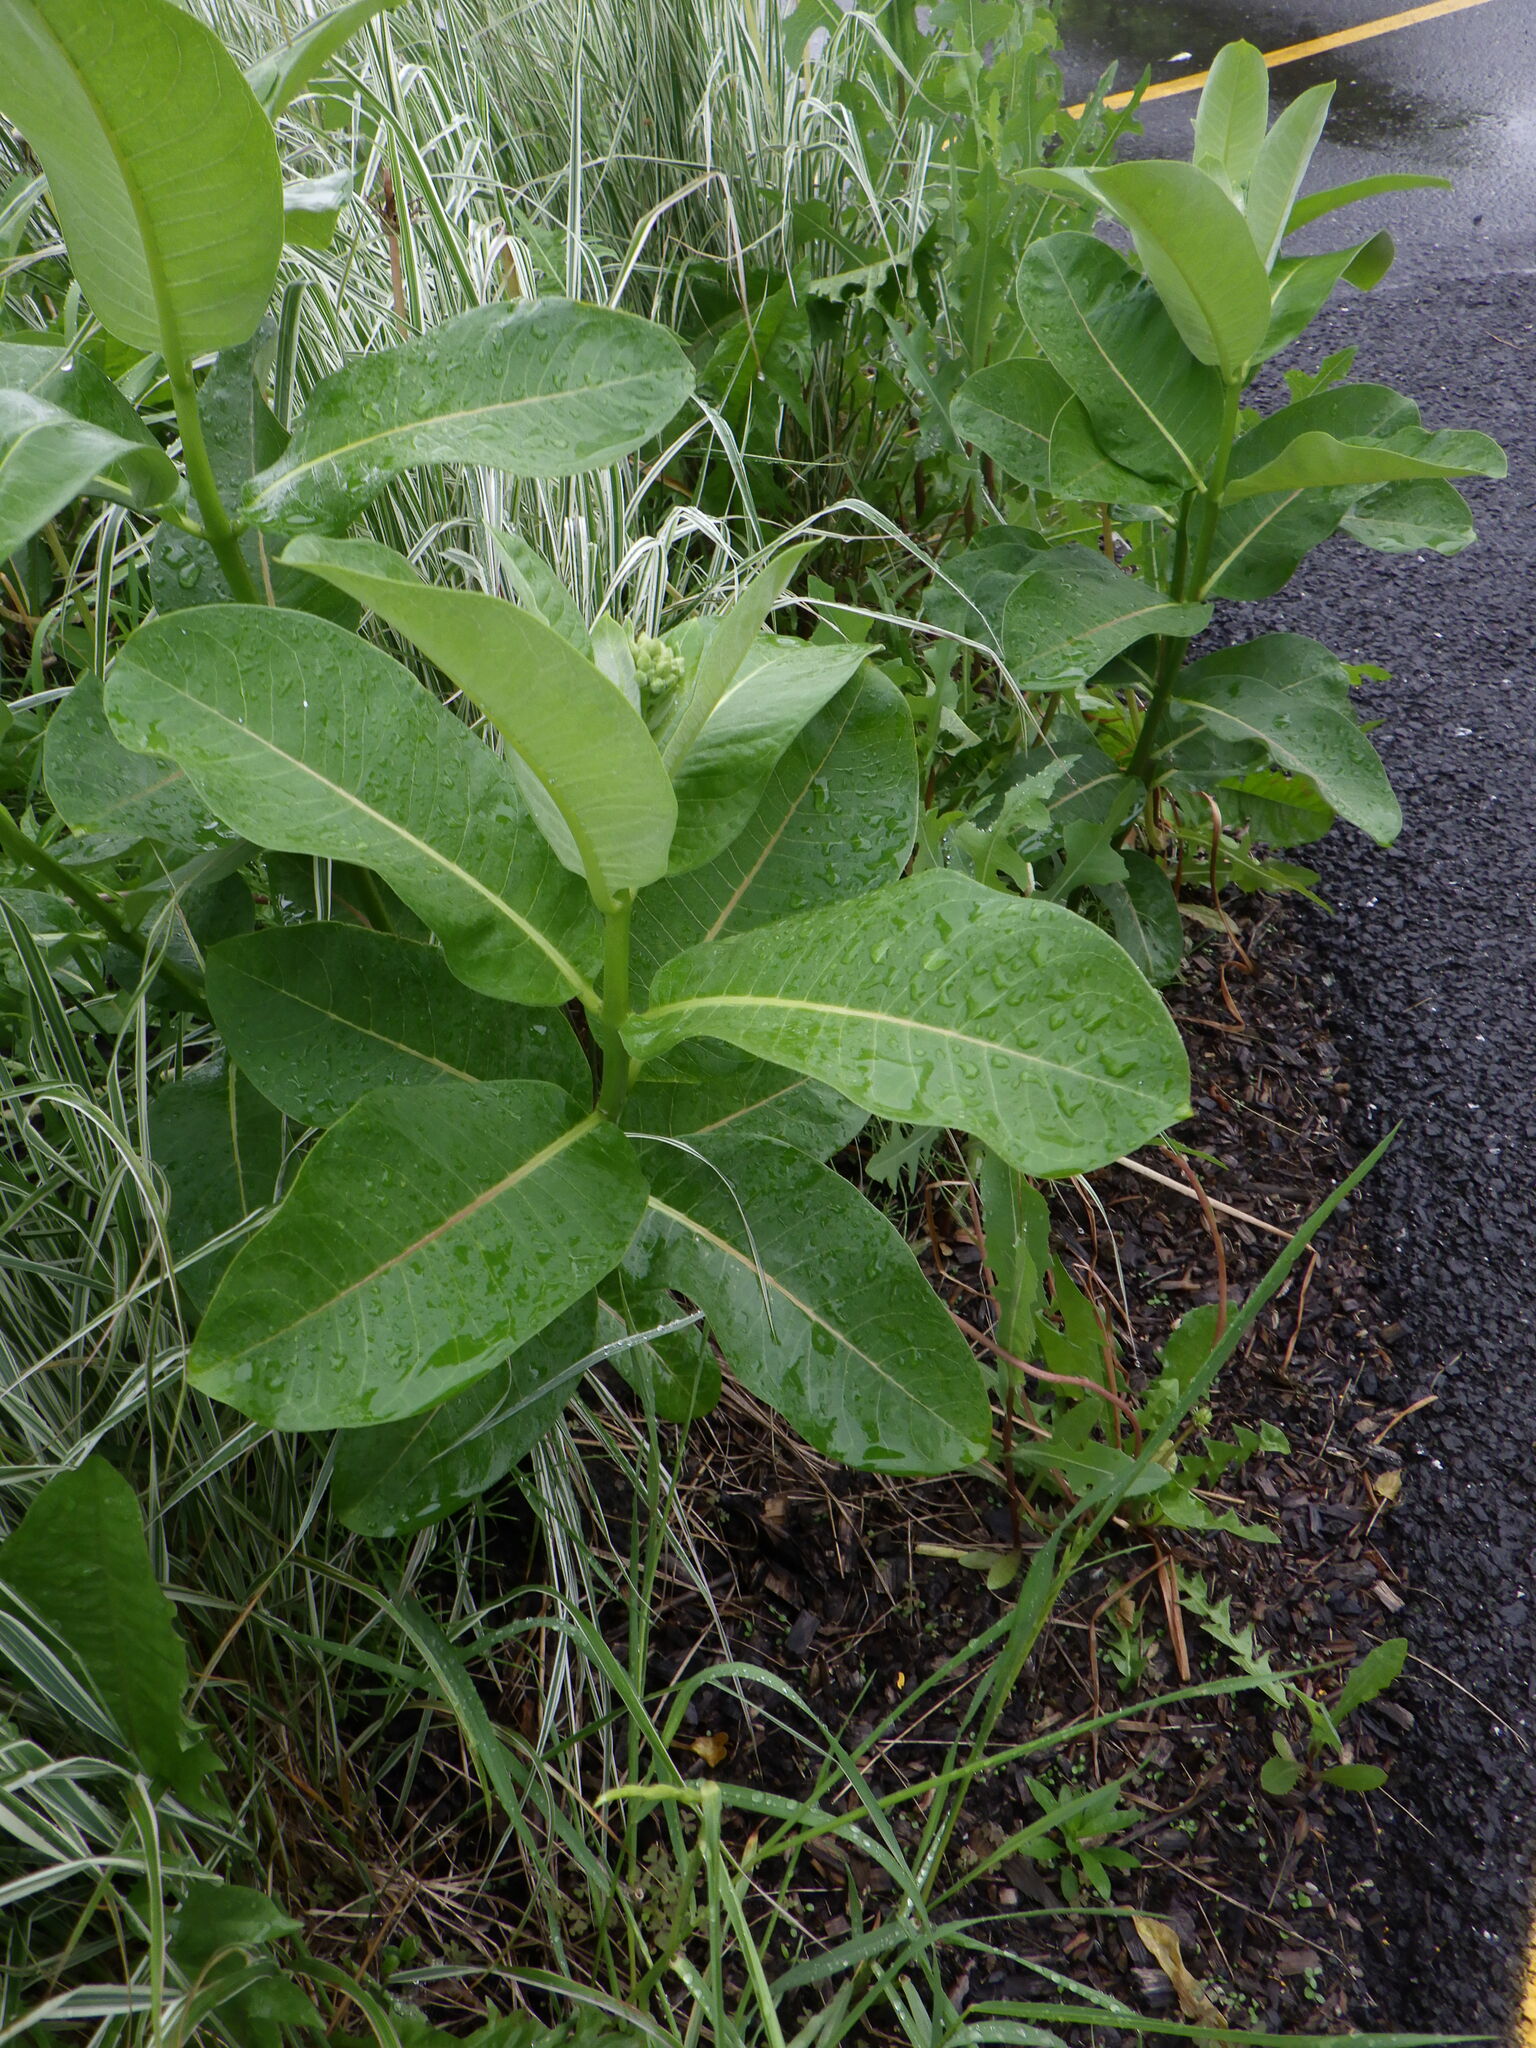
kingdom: Plantae
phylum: Tracheophyta
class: Magnoliopsida
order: Gentianales
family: Apocynaceae
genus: Asclepias
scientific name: Asclepias syriaca
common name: Common milkweed
